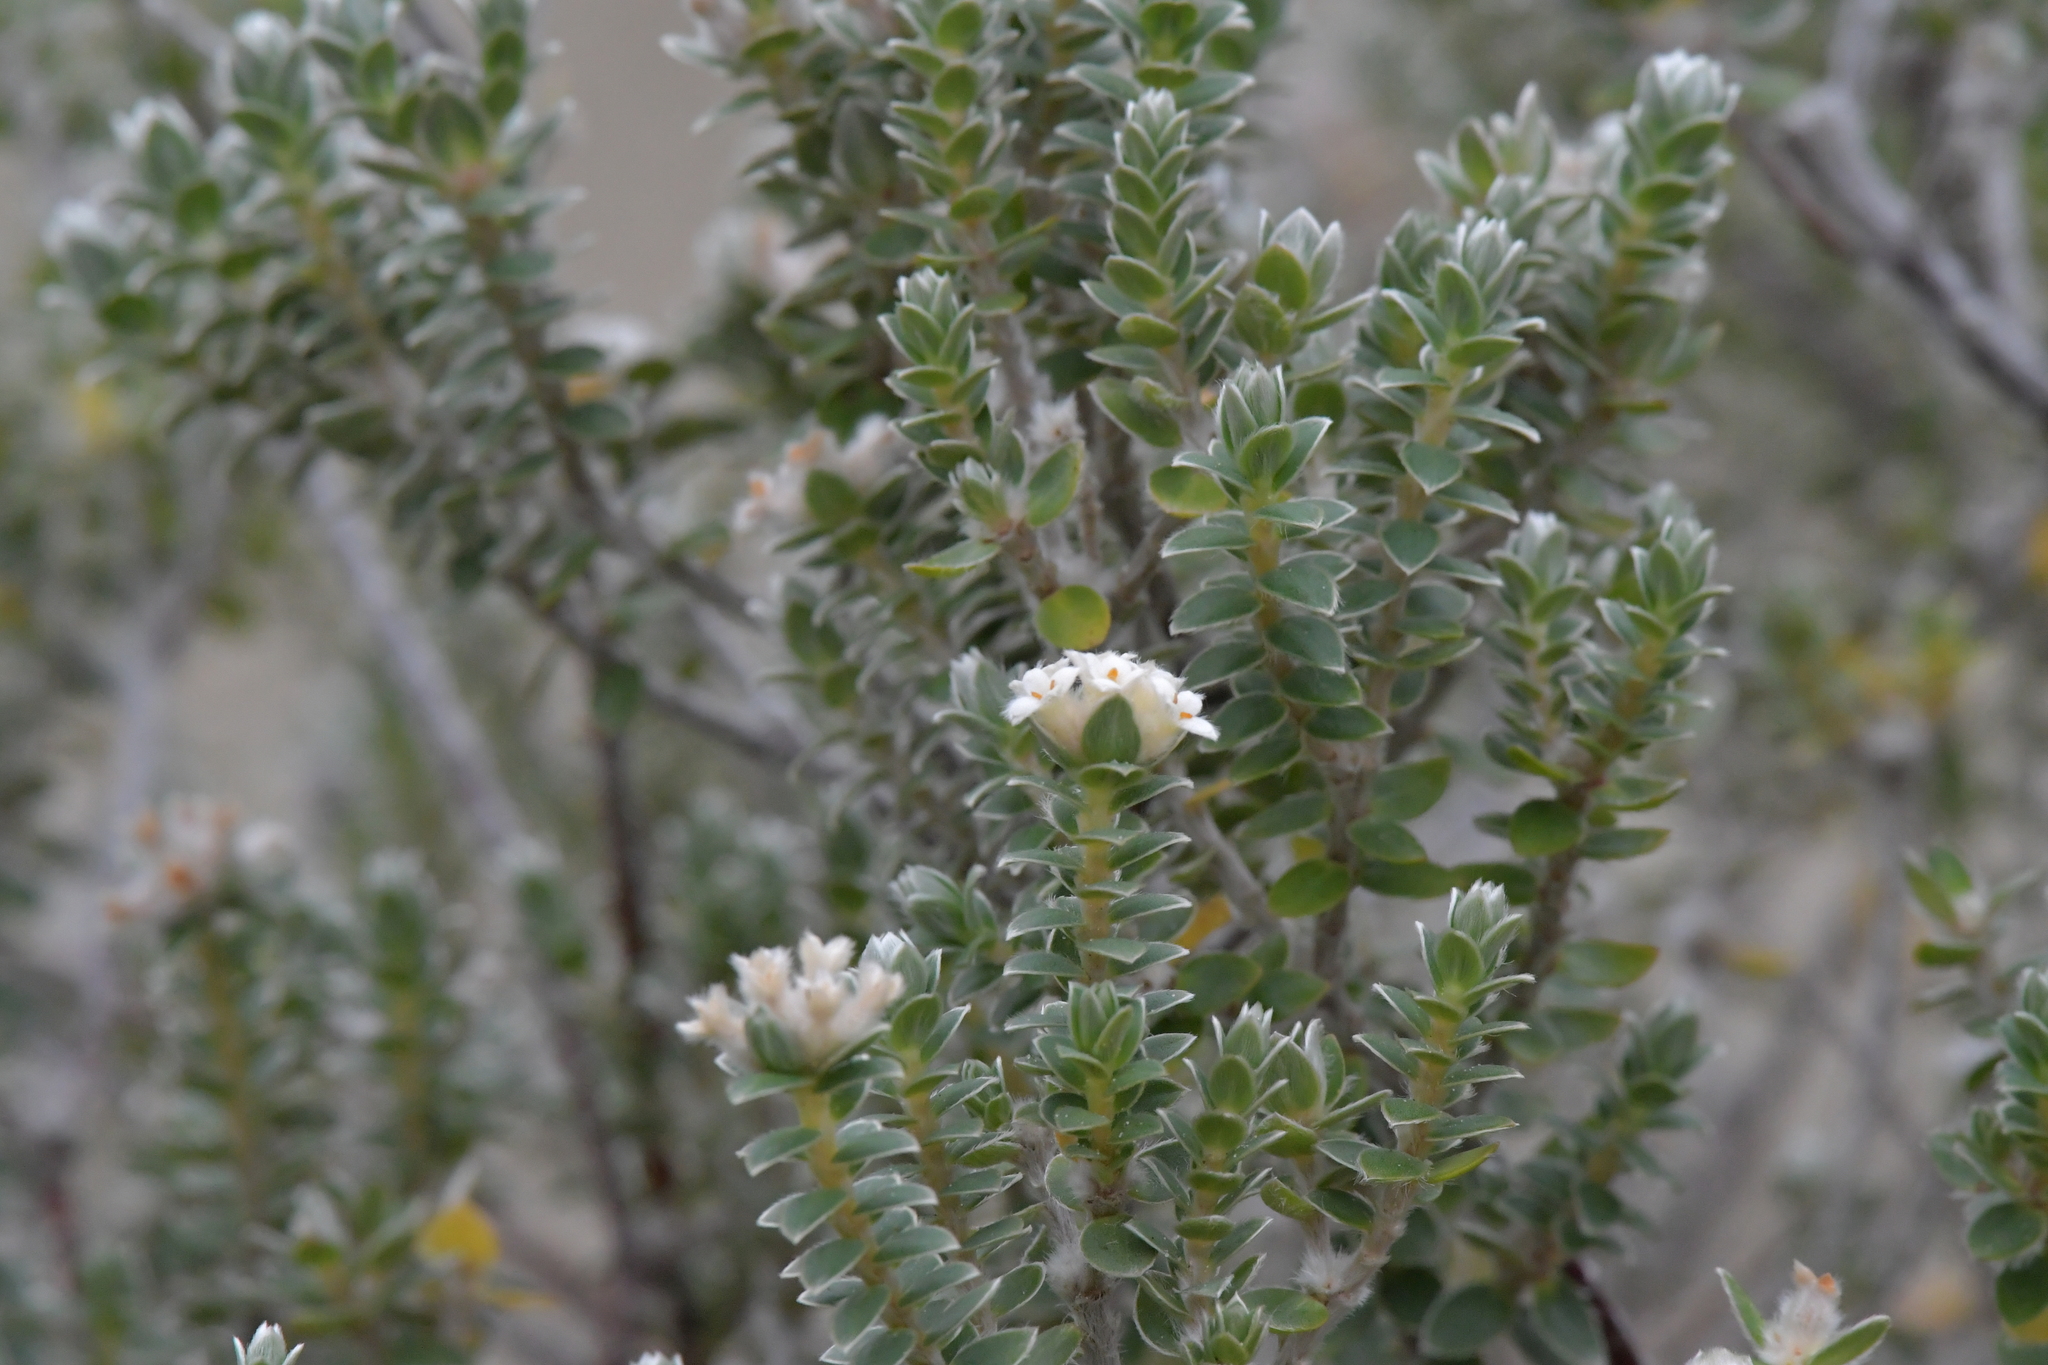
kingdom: Plantae
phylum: Tracheophyta
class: Magnoliopsida
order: Malvales
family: Thymelaeaceae
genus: Pimelea
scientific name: Pimelea villosa
